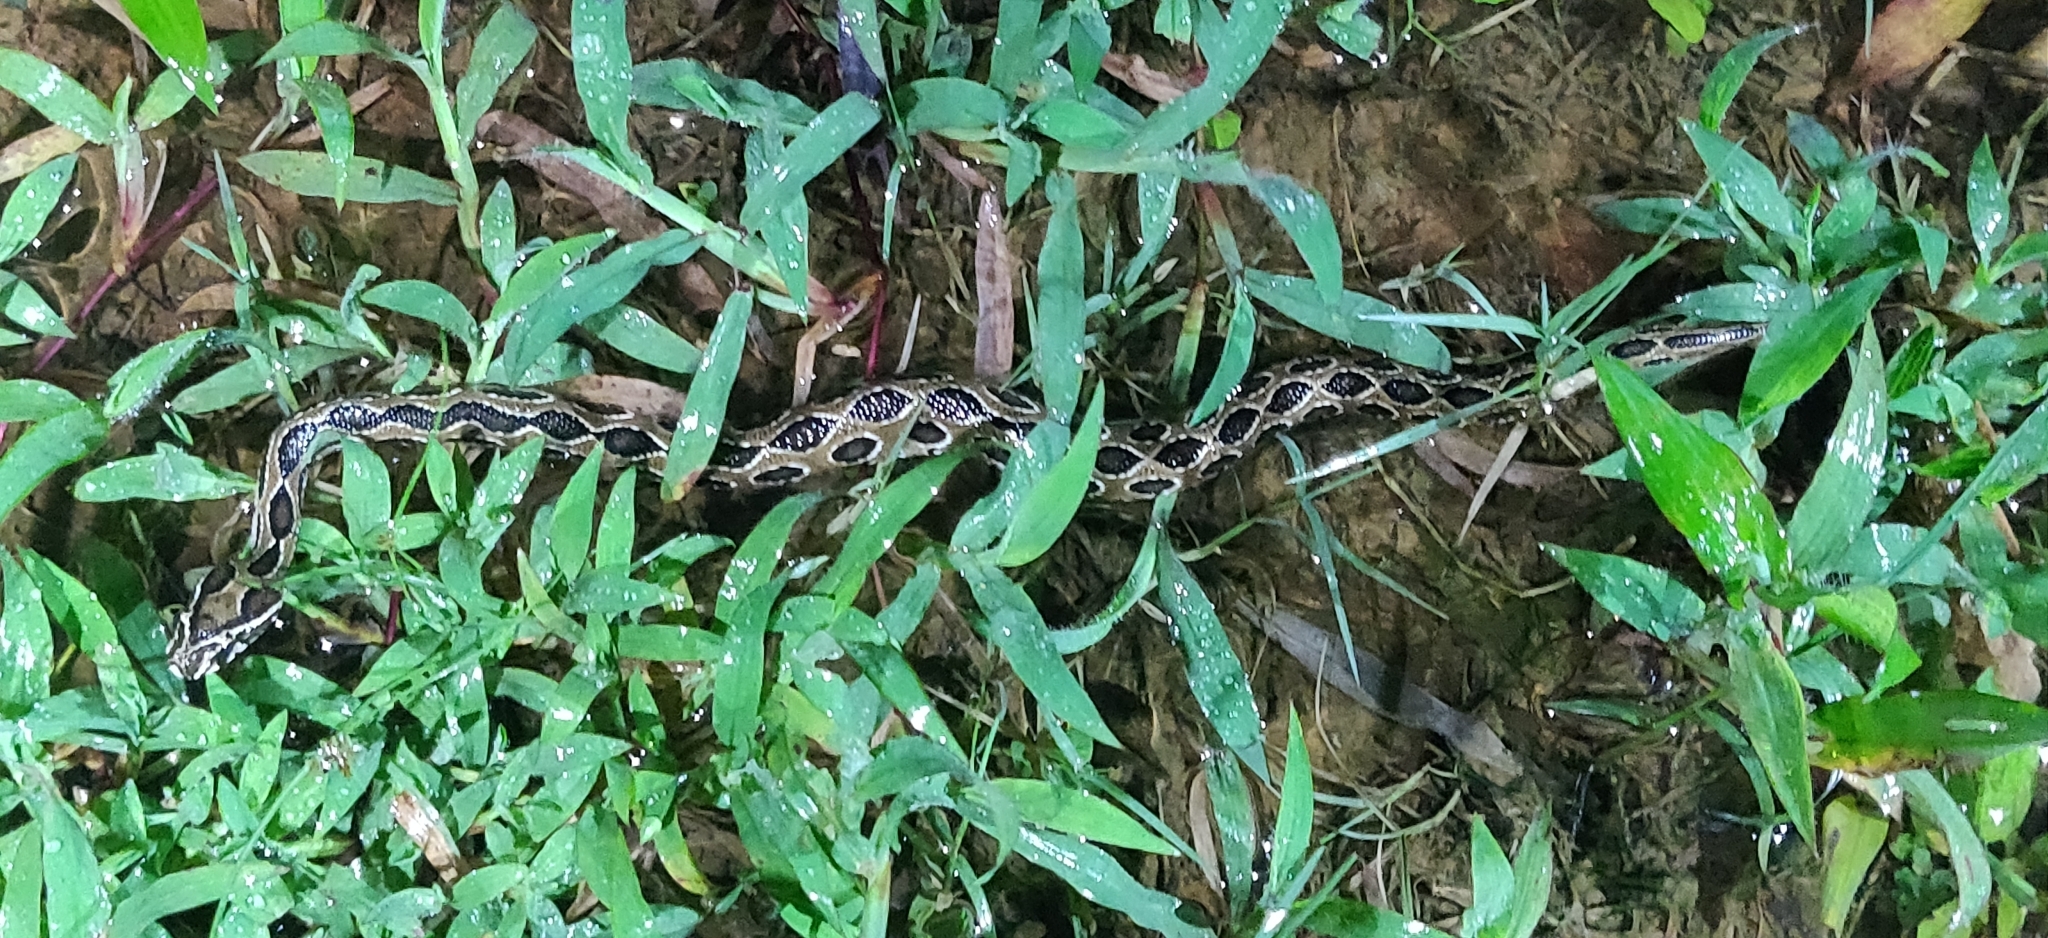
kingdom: Animalia
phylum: Chordata
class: Squamata
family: Viperidae
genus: Daboia
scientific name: Daboia russelii
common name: Western russel’s viper
